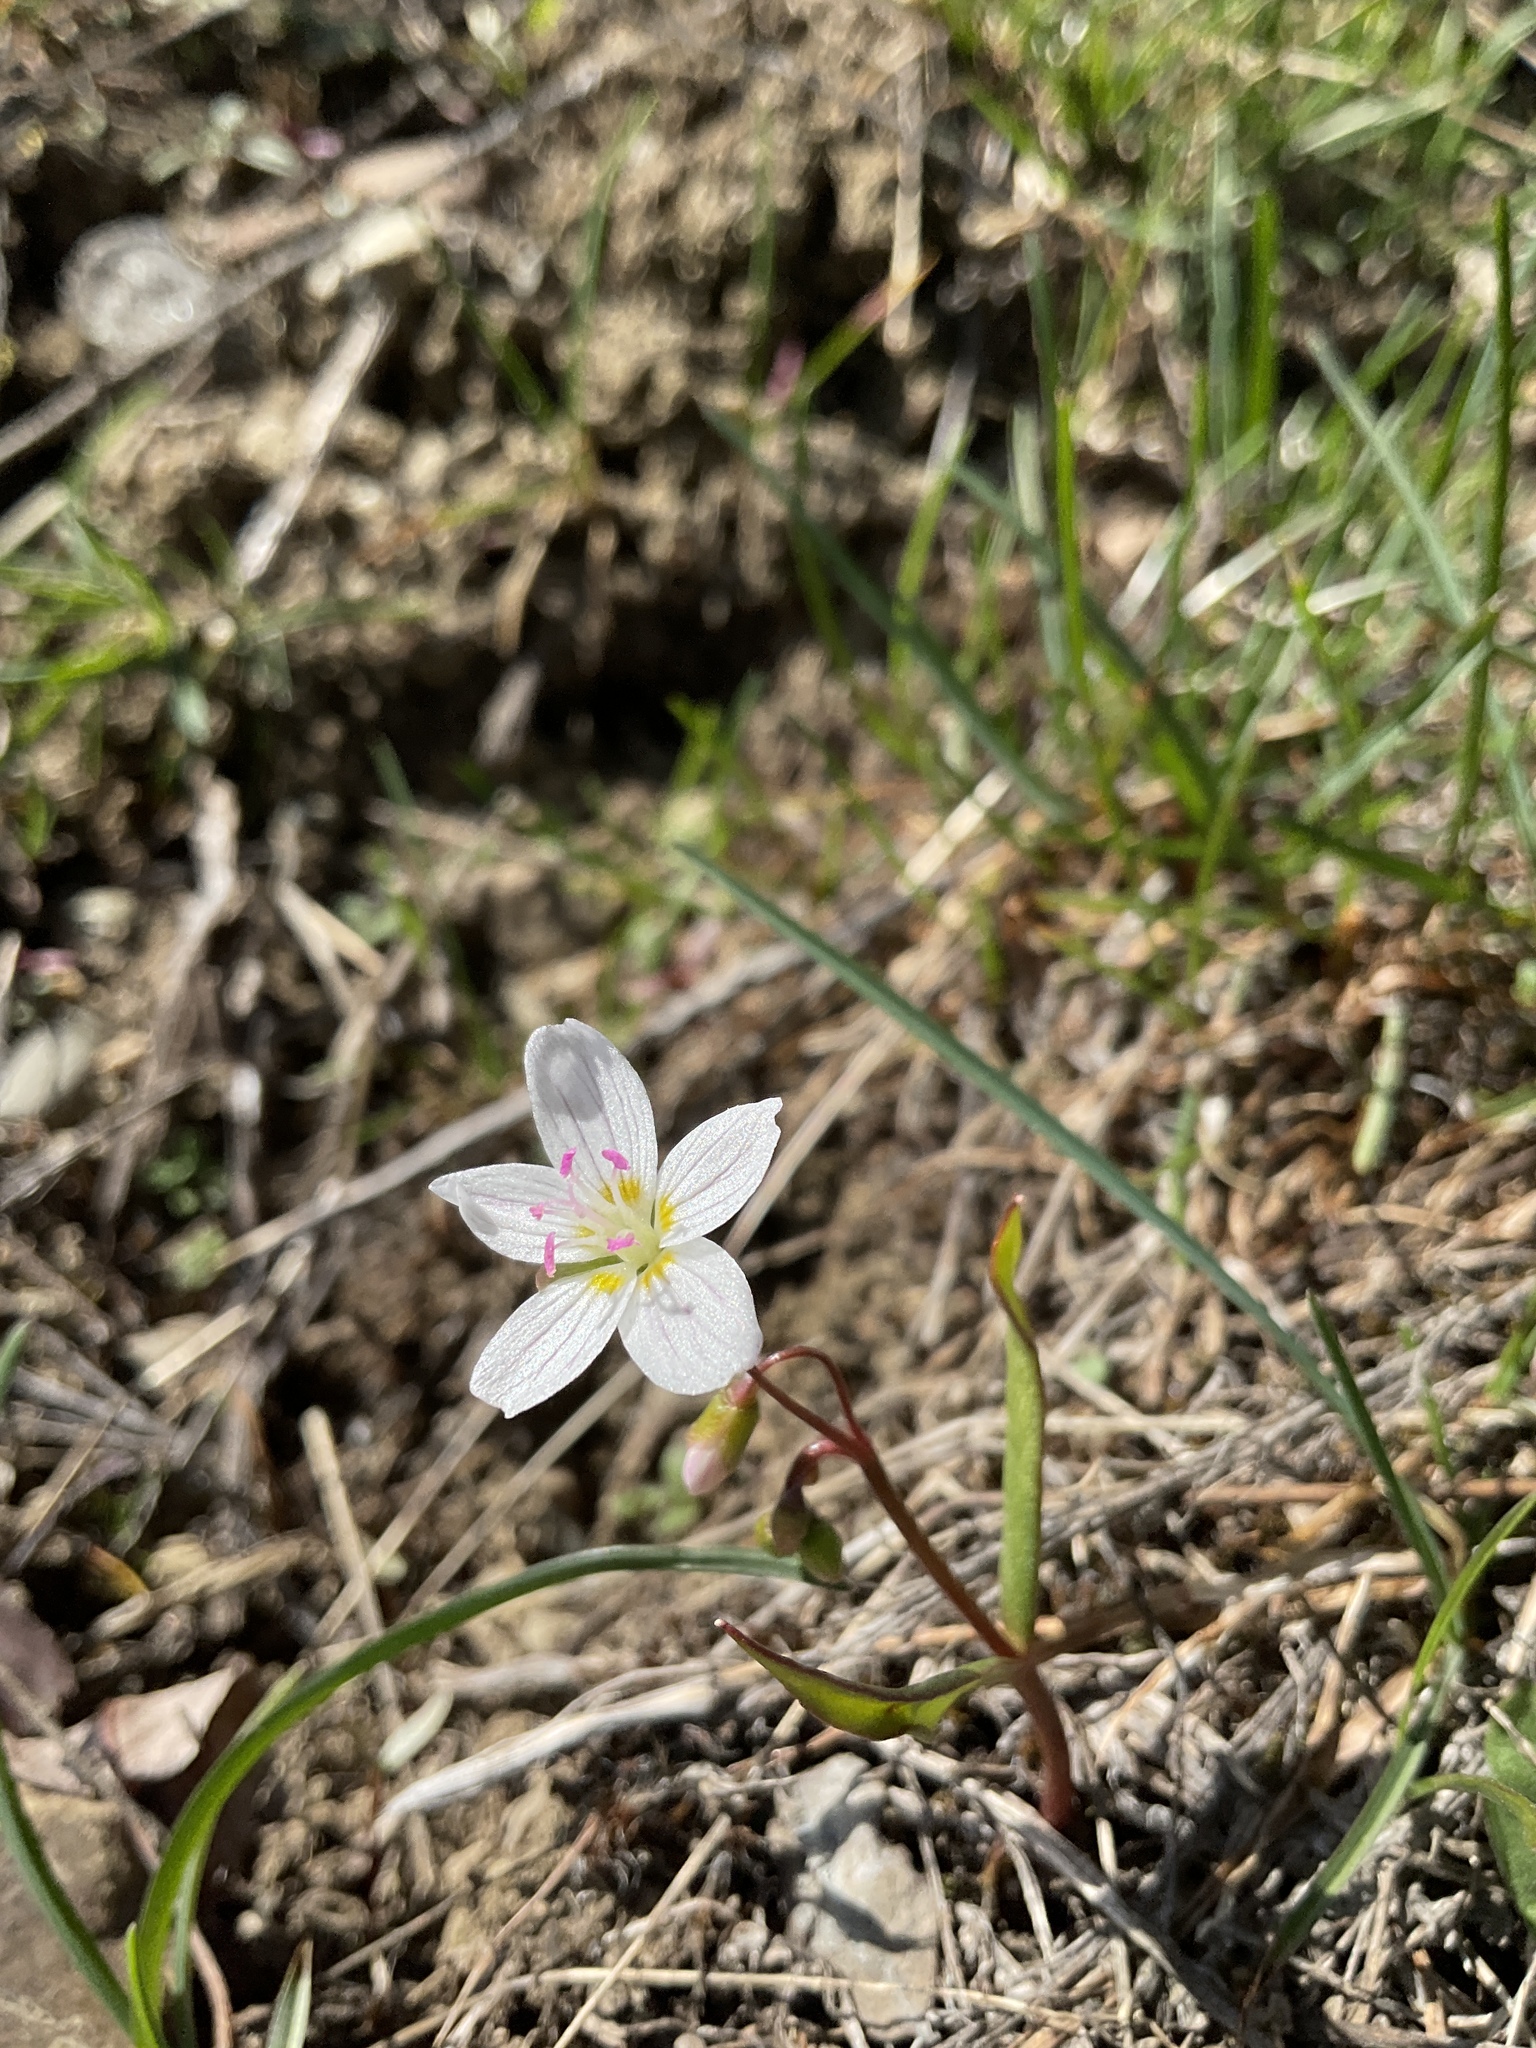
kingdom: Plantae
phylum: Tracheophyta
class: Magnoliopsida
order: Caryophyllales
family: Montiaceae
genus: Claytonia
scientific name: Claytonia lanceolata
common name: Western spring-beauty
